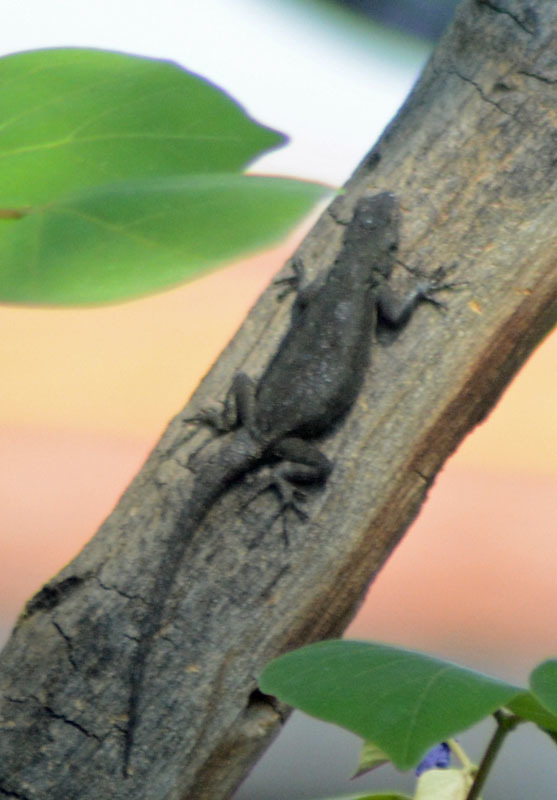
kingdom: Animalia
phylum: Chordata
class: Squamata
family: Phrynosomatidae
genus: Sceloporus
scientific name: Sceloporus grammicus
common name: Mesquite lizard
